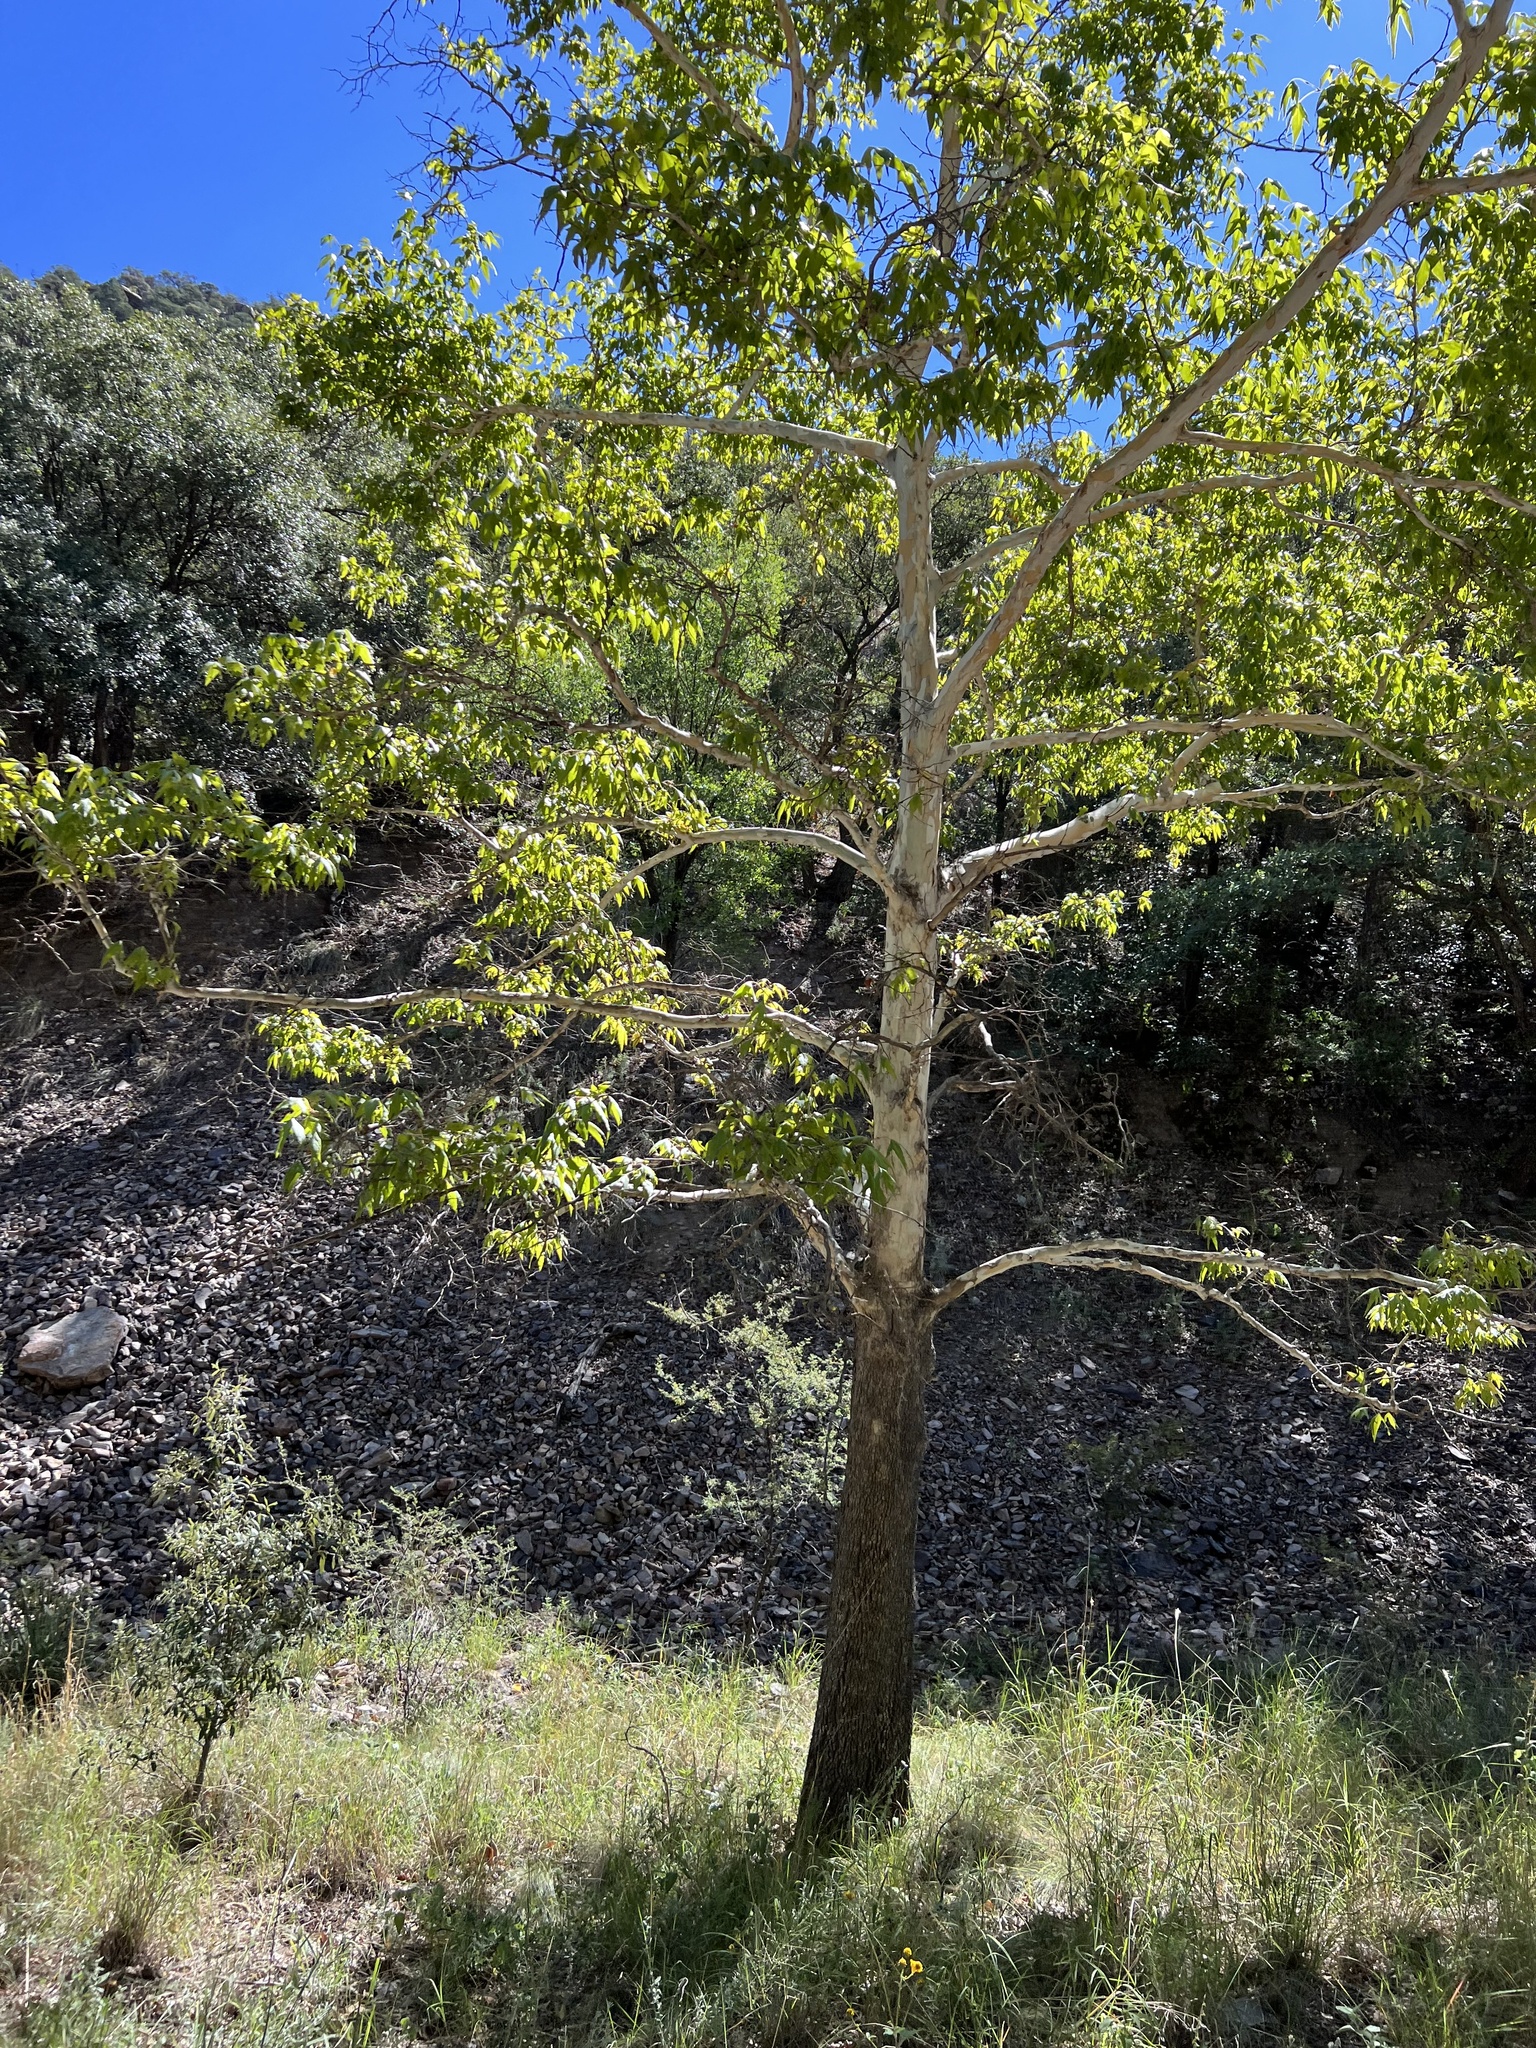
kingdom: Plantae
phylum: Tracheophyta
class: Magnoliopsida
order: Proteales
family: Platanaceae
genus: Platanus
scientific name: Platanus wrightii
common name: Arizona sycamore
